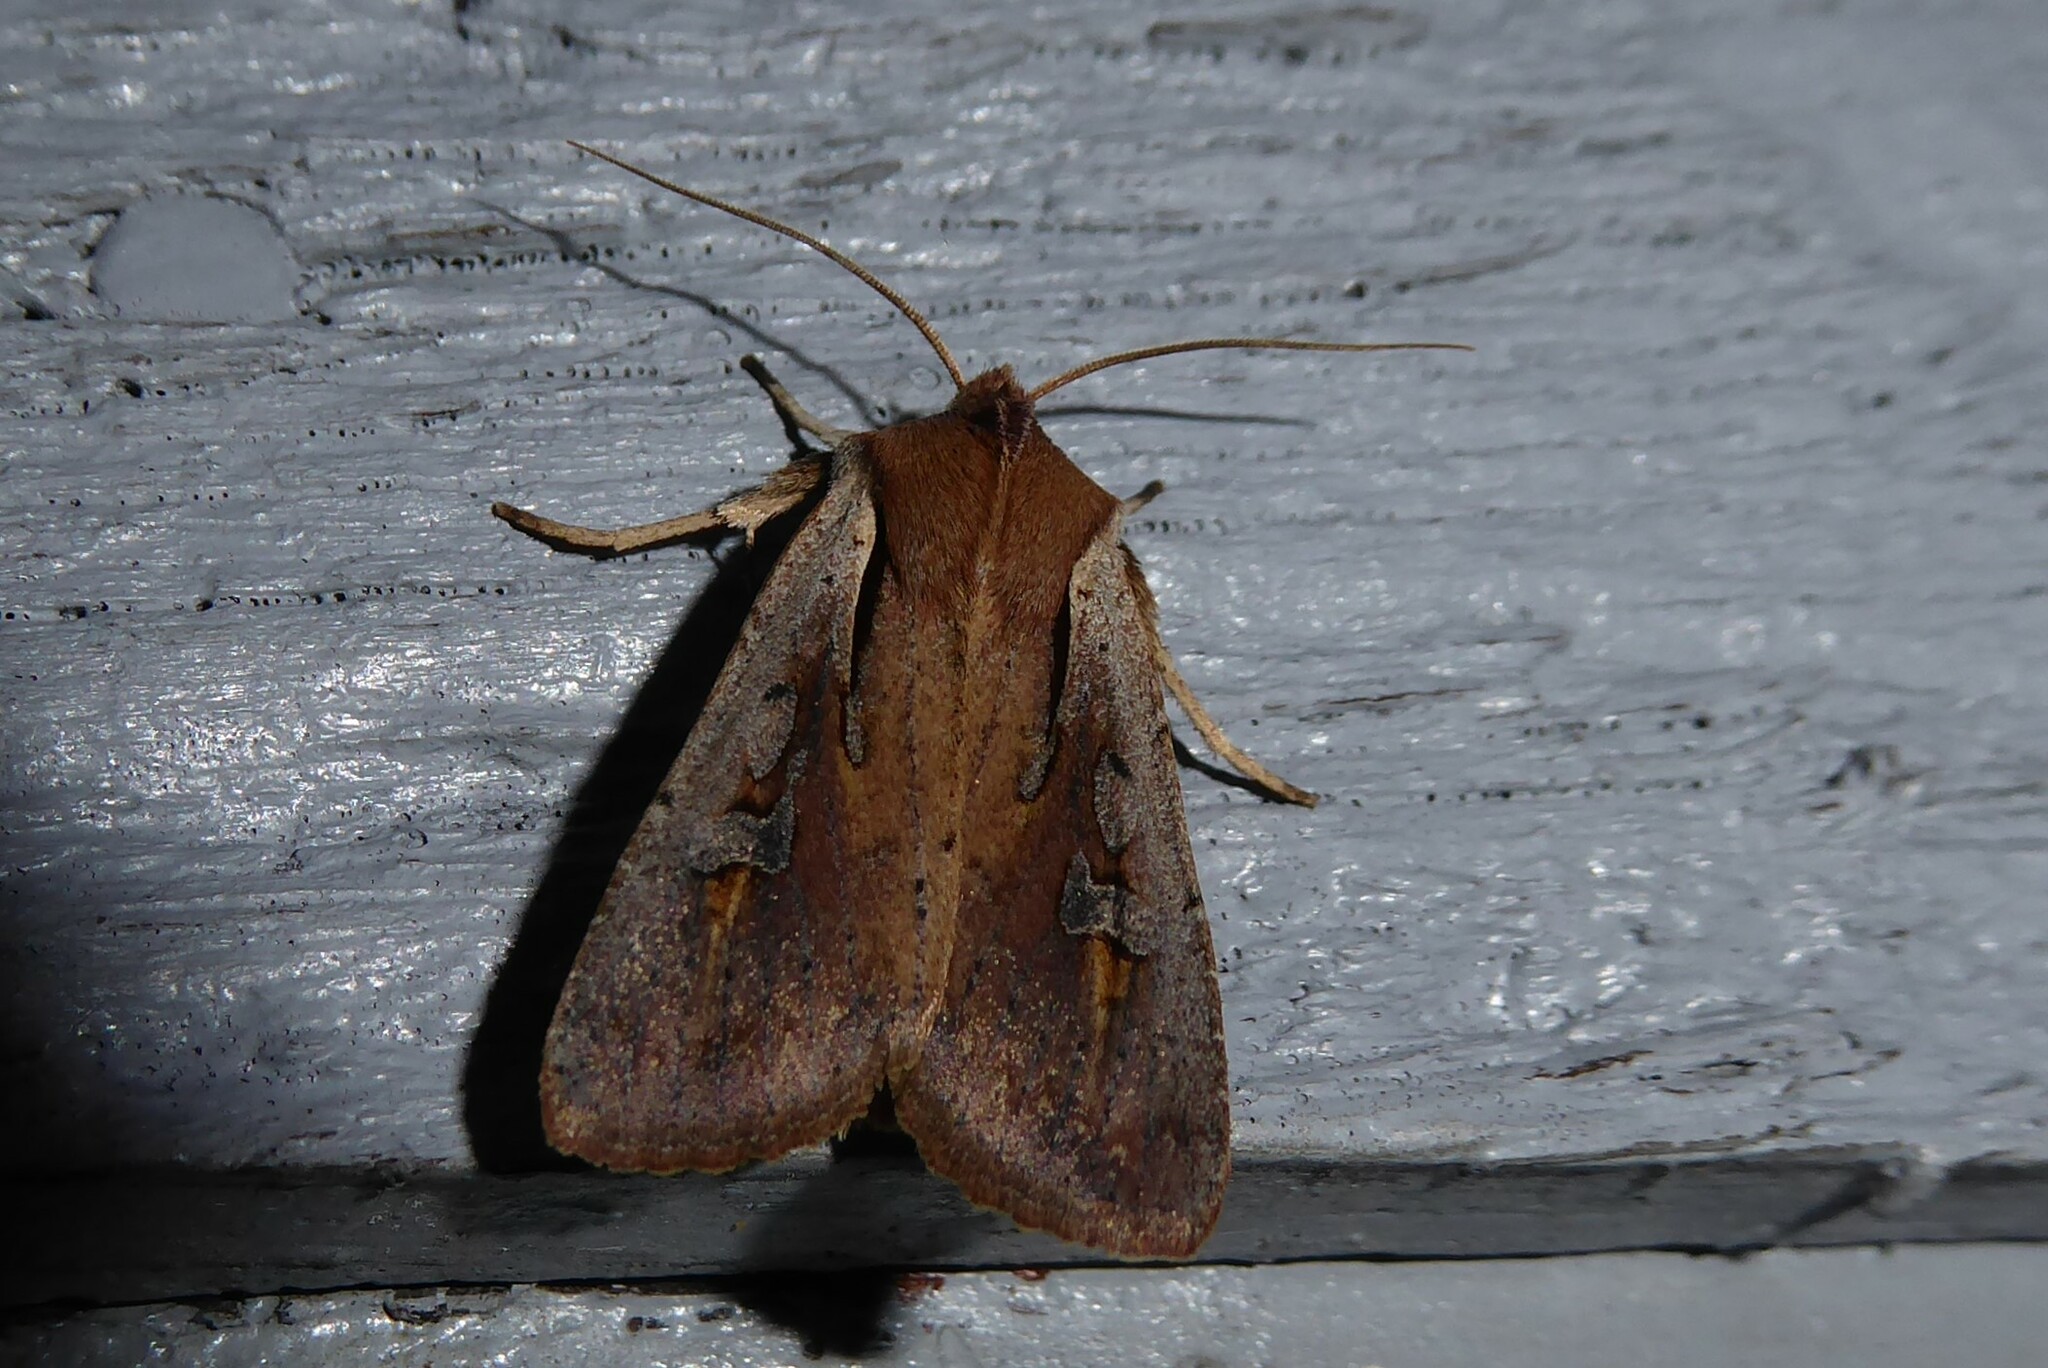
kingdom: Animalia
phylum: Arthropoda
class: Insecta
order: Lepidoptera
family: Noctuidae
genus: Ichneutica
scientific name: Ichneutica atristriga
